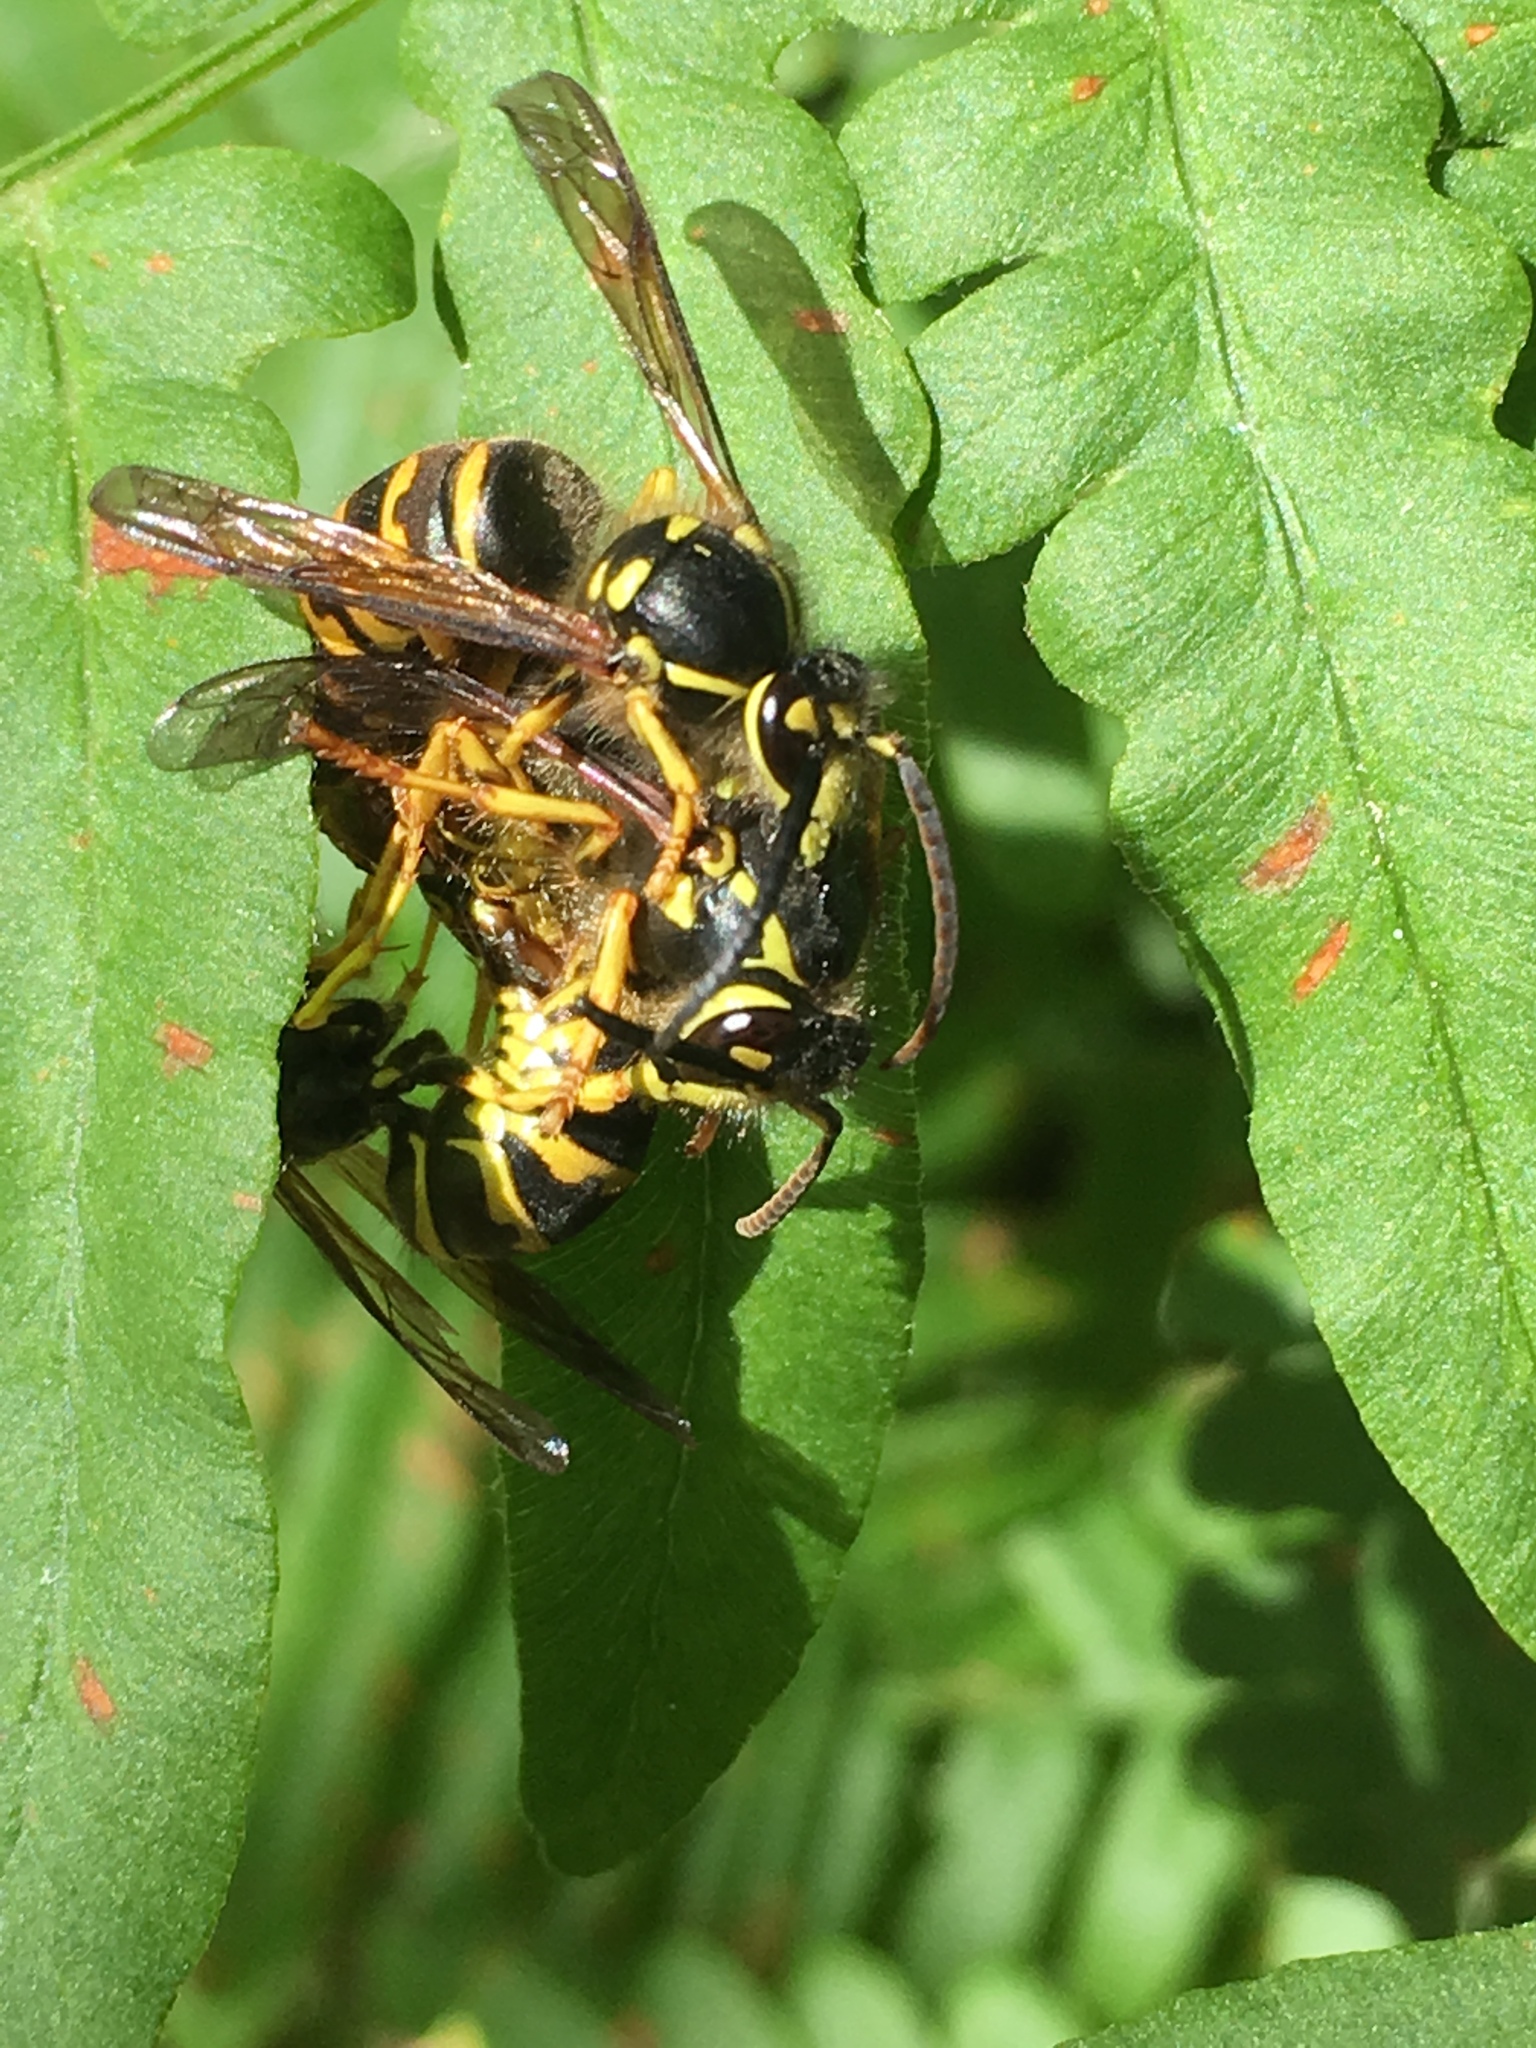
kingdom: Animalia
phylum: Arthropoda
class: Insecta
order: Hymenoptera
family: Vespidae
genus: Dolichovespula
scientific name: Dolichovespula arenaria
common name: Aerial yellowjacket
